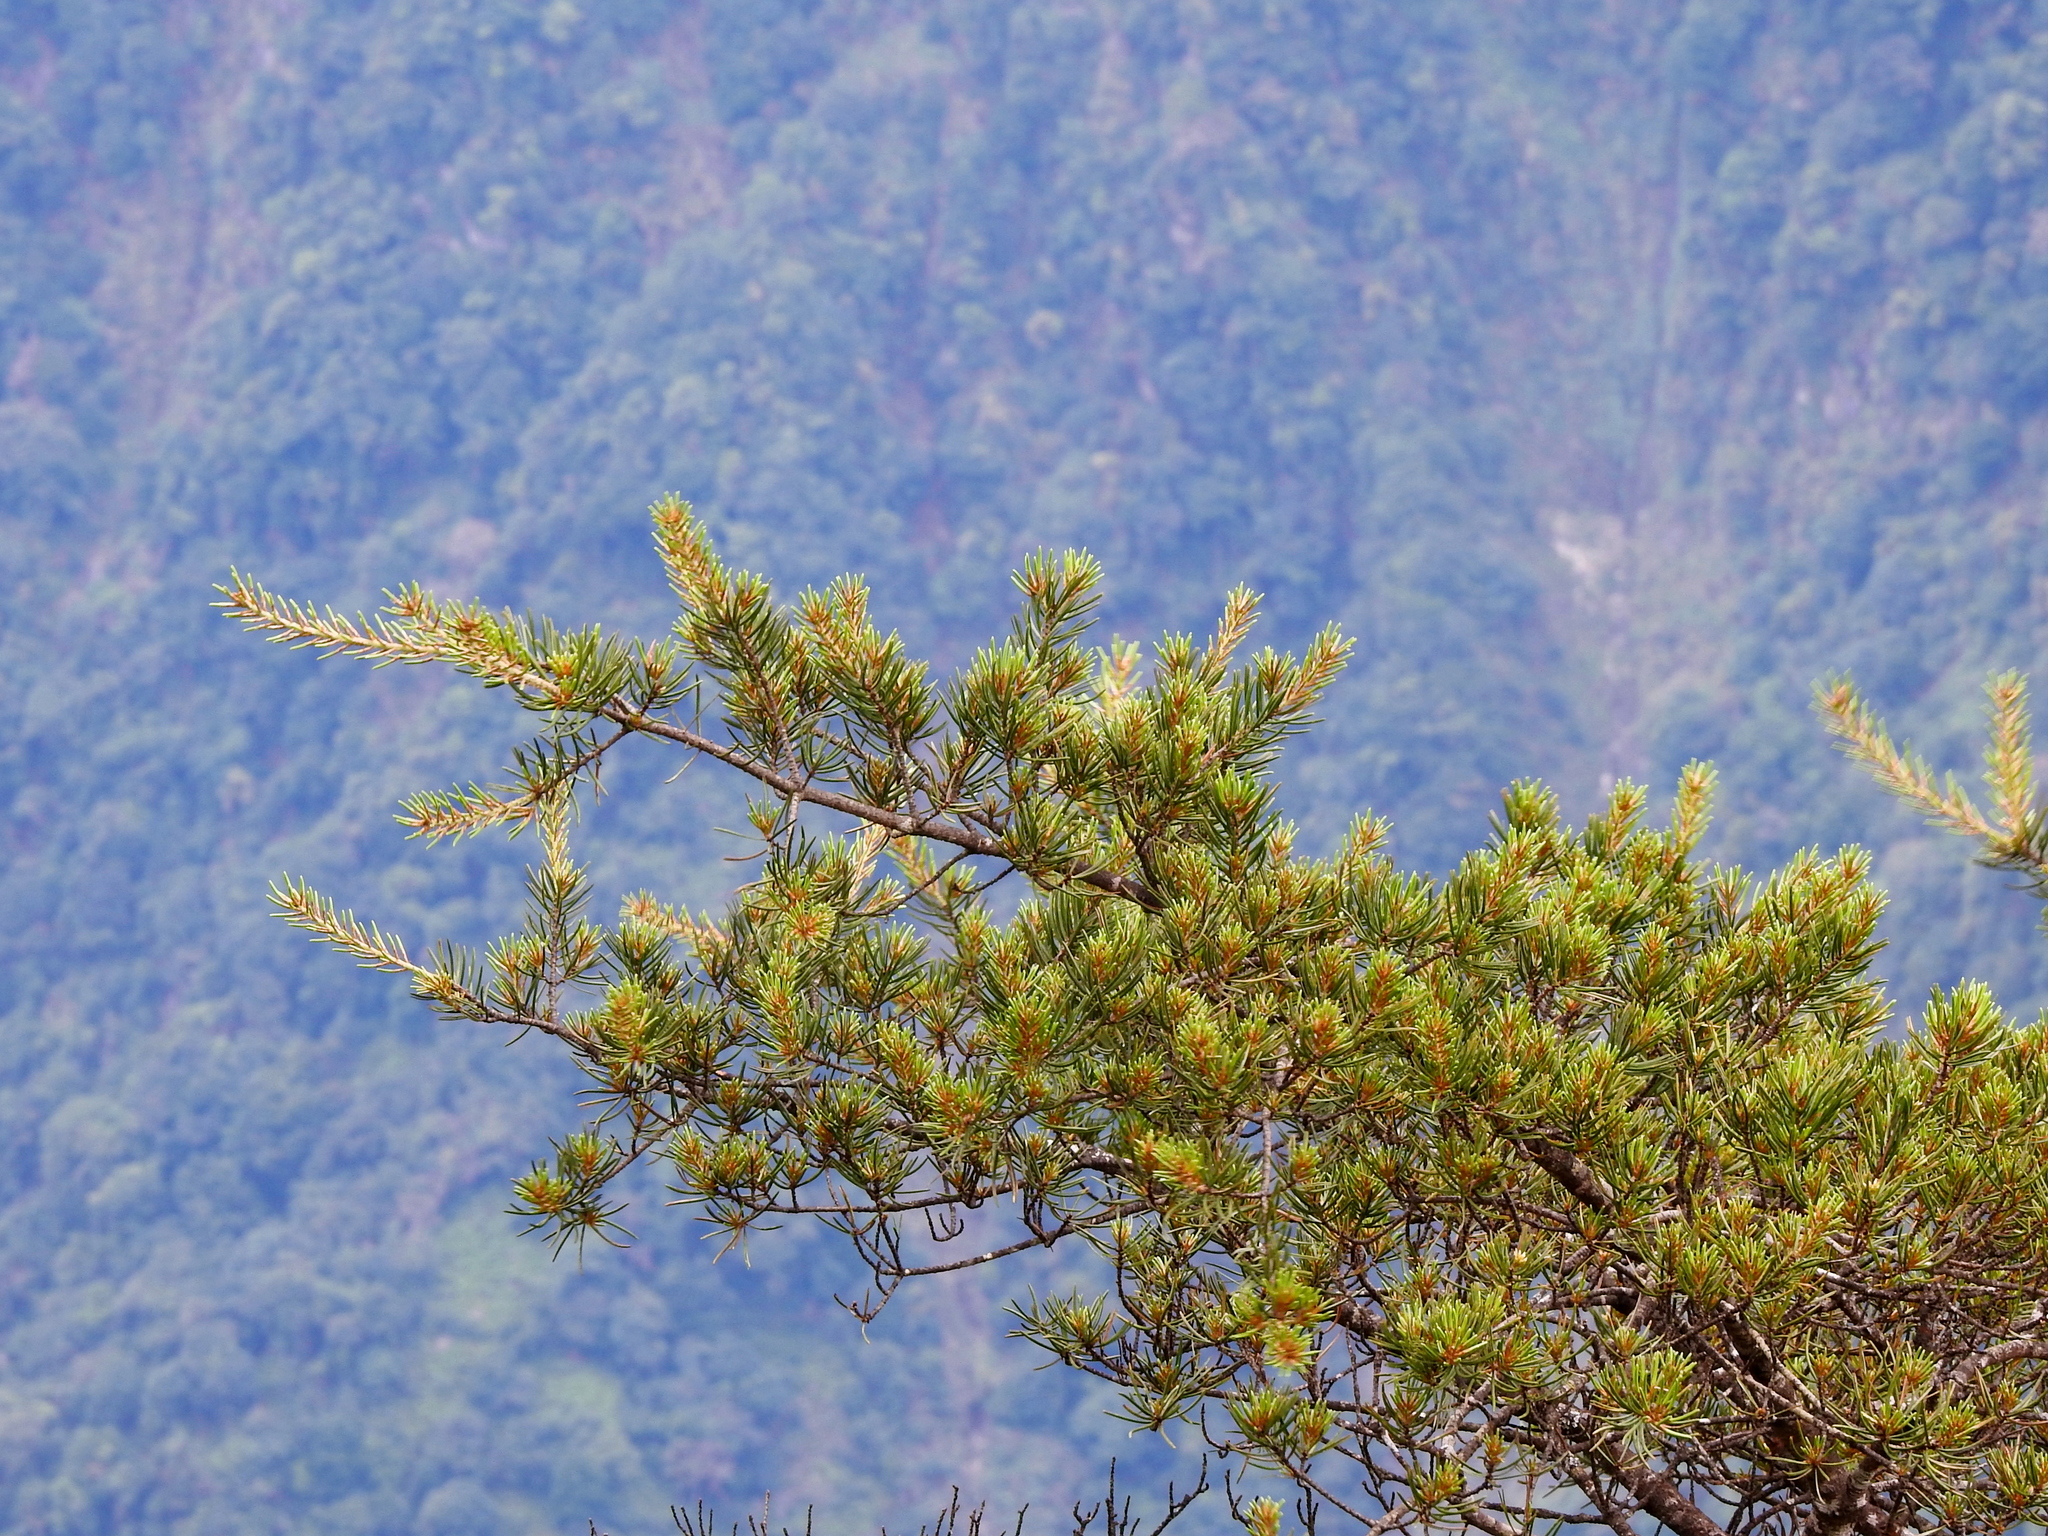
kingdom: Plantae
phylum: Tracheophyta
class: Pinopsida
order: Pinales
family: Pinaceae
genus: Pinus
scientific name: Pinus morrisonicola
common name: Taiwan white pine
